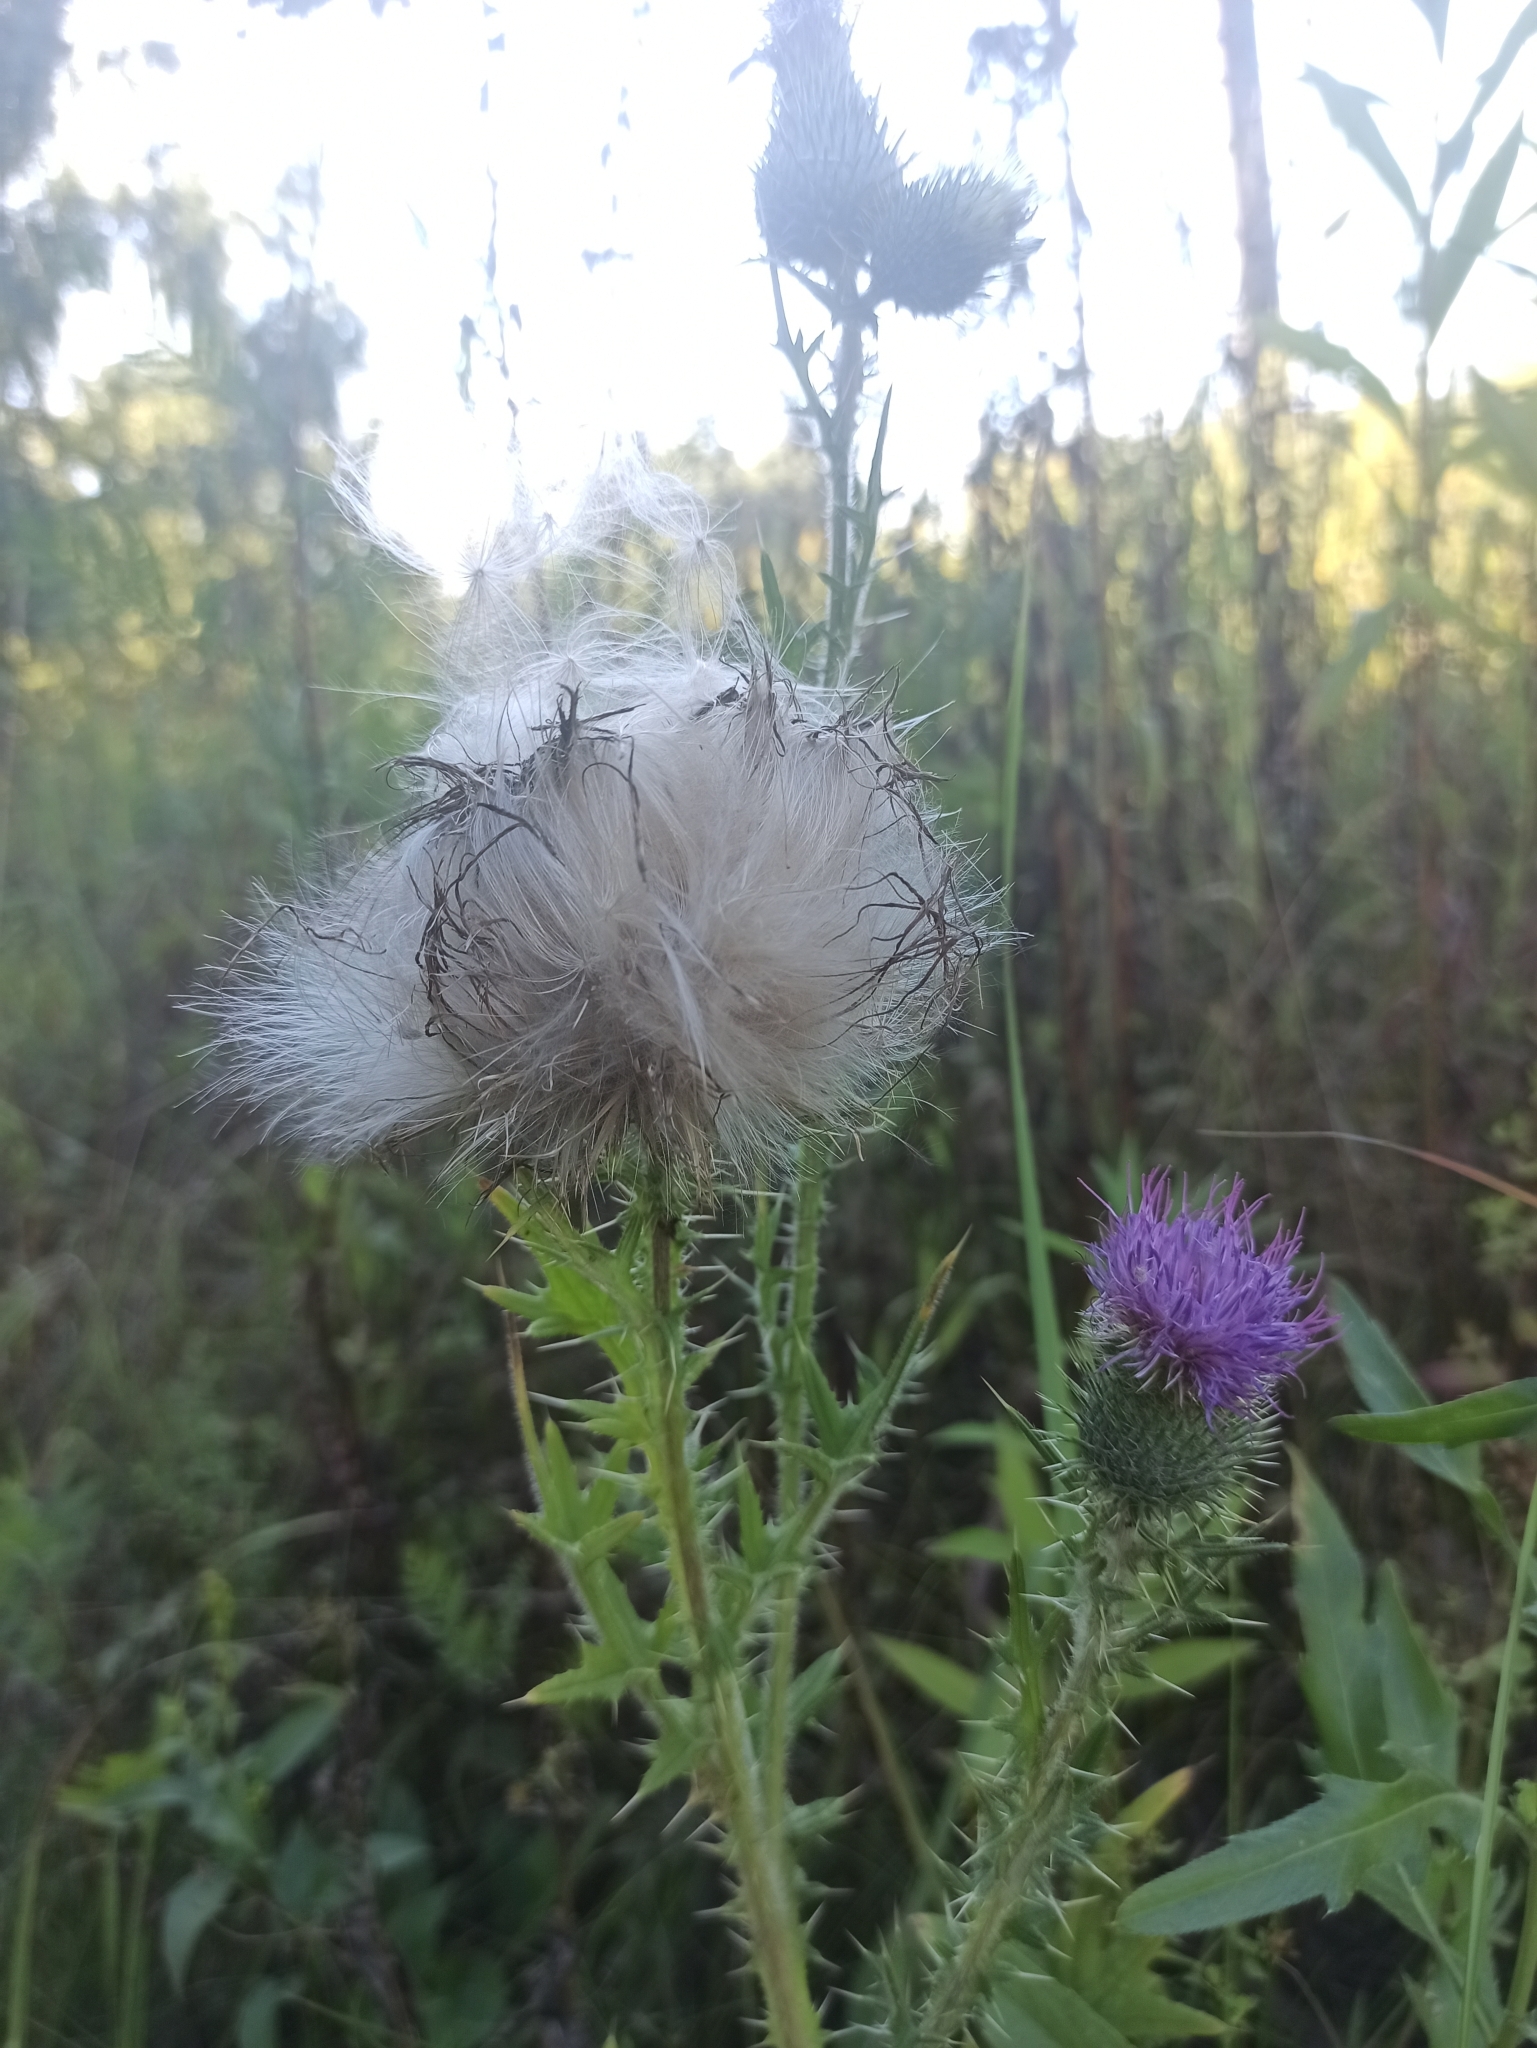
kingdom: Plantae
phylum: Tracheophyta
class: Magnoliopsida
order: Asterales
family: Asteraceae
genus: Cirsium
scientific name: Cirsium vulgare
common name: Bull thistle
